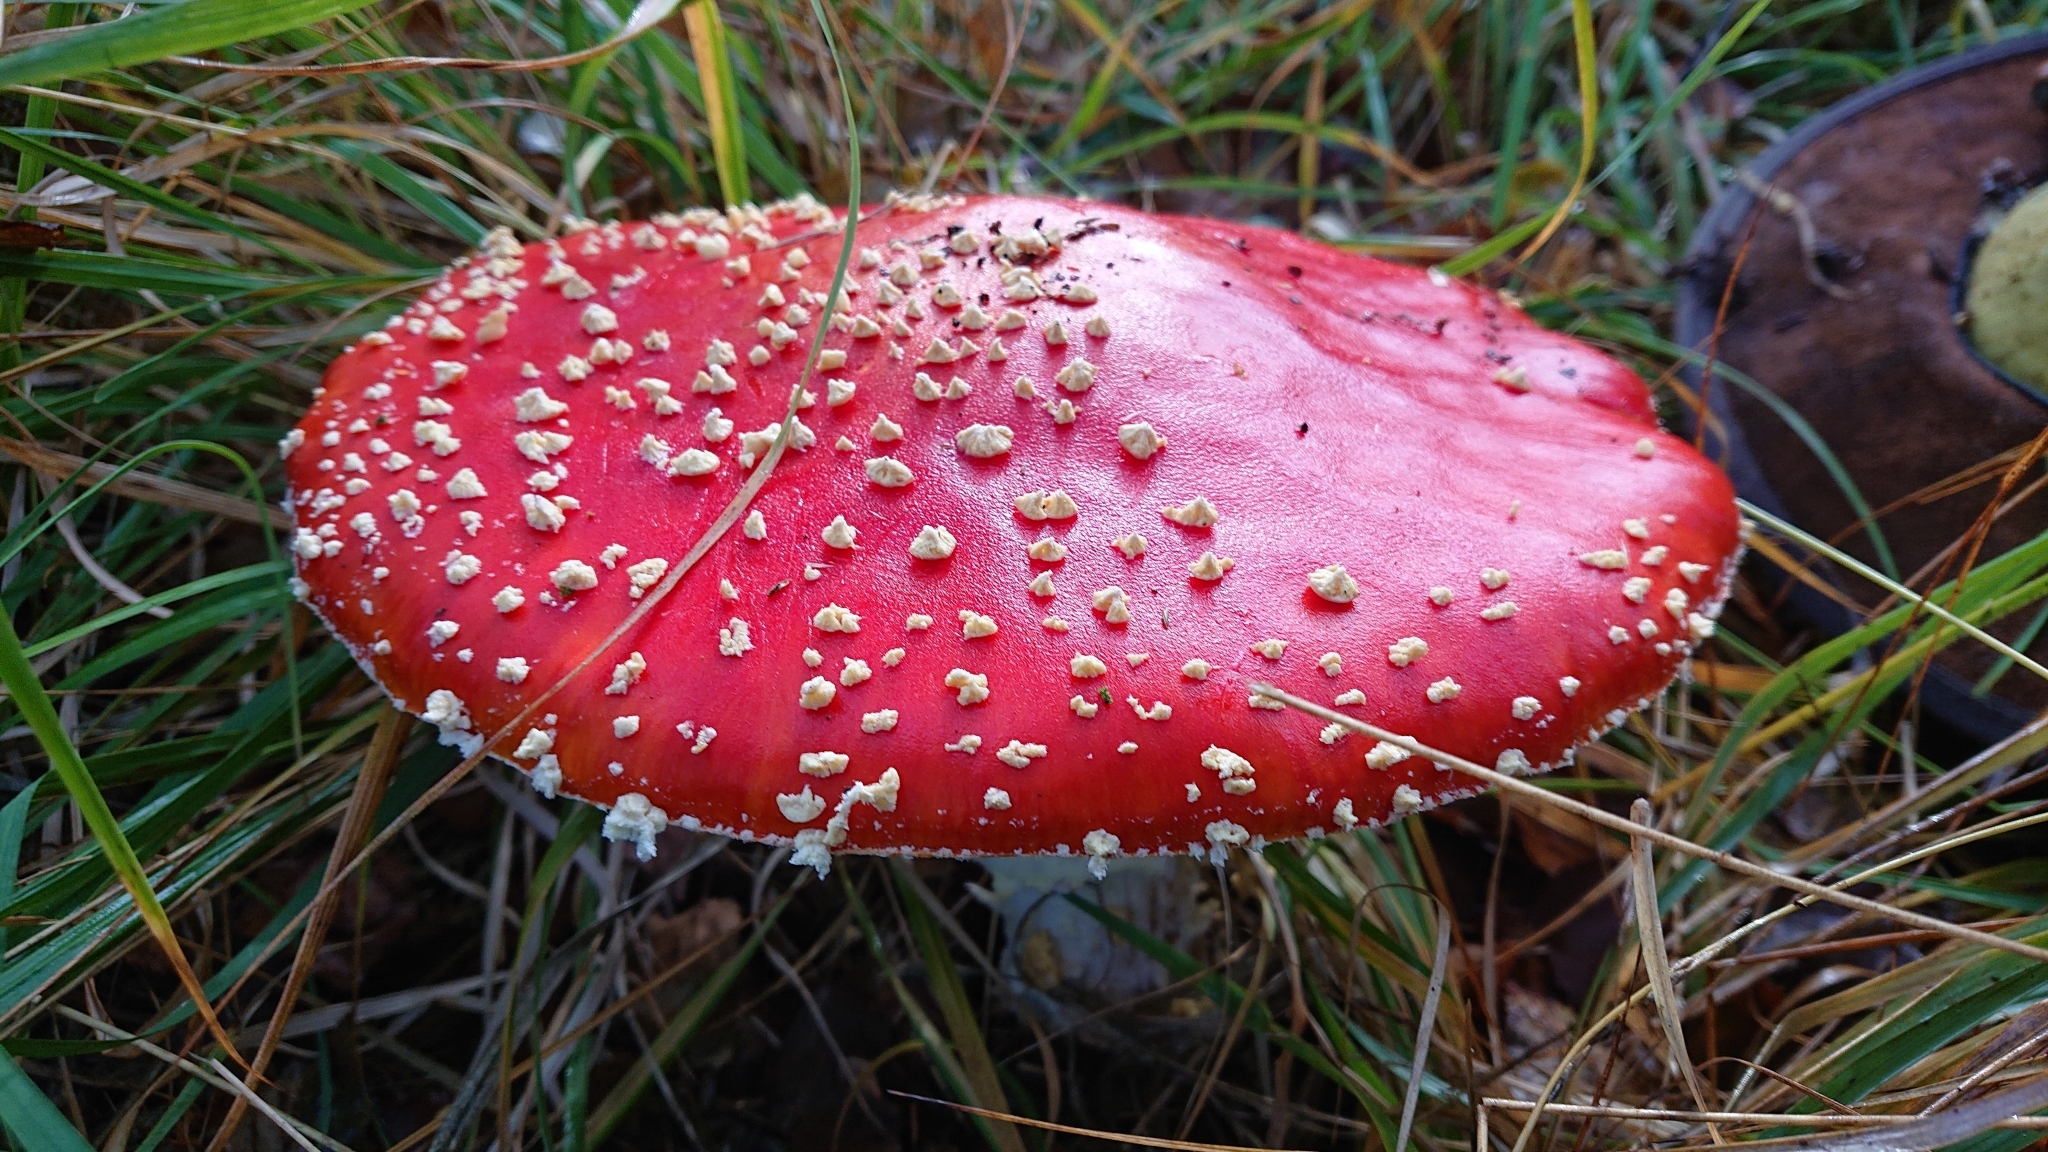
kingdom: Fungi
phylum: Basidiomycota
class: Agaricomycetes
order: Agaricales
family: Amanitaceae
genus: Amanita
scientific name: Amanita muscaria
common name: Fly agaric
